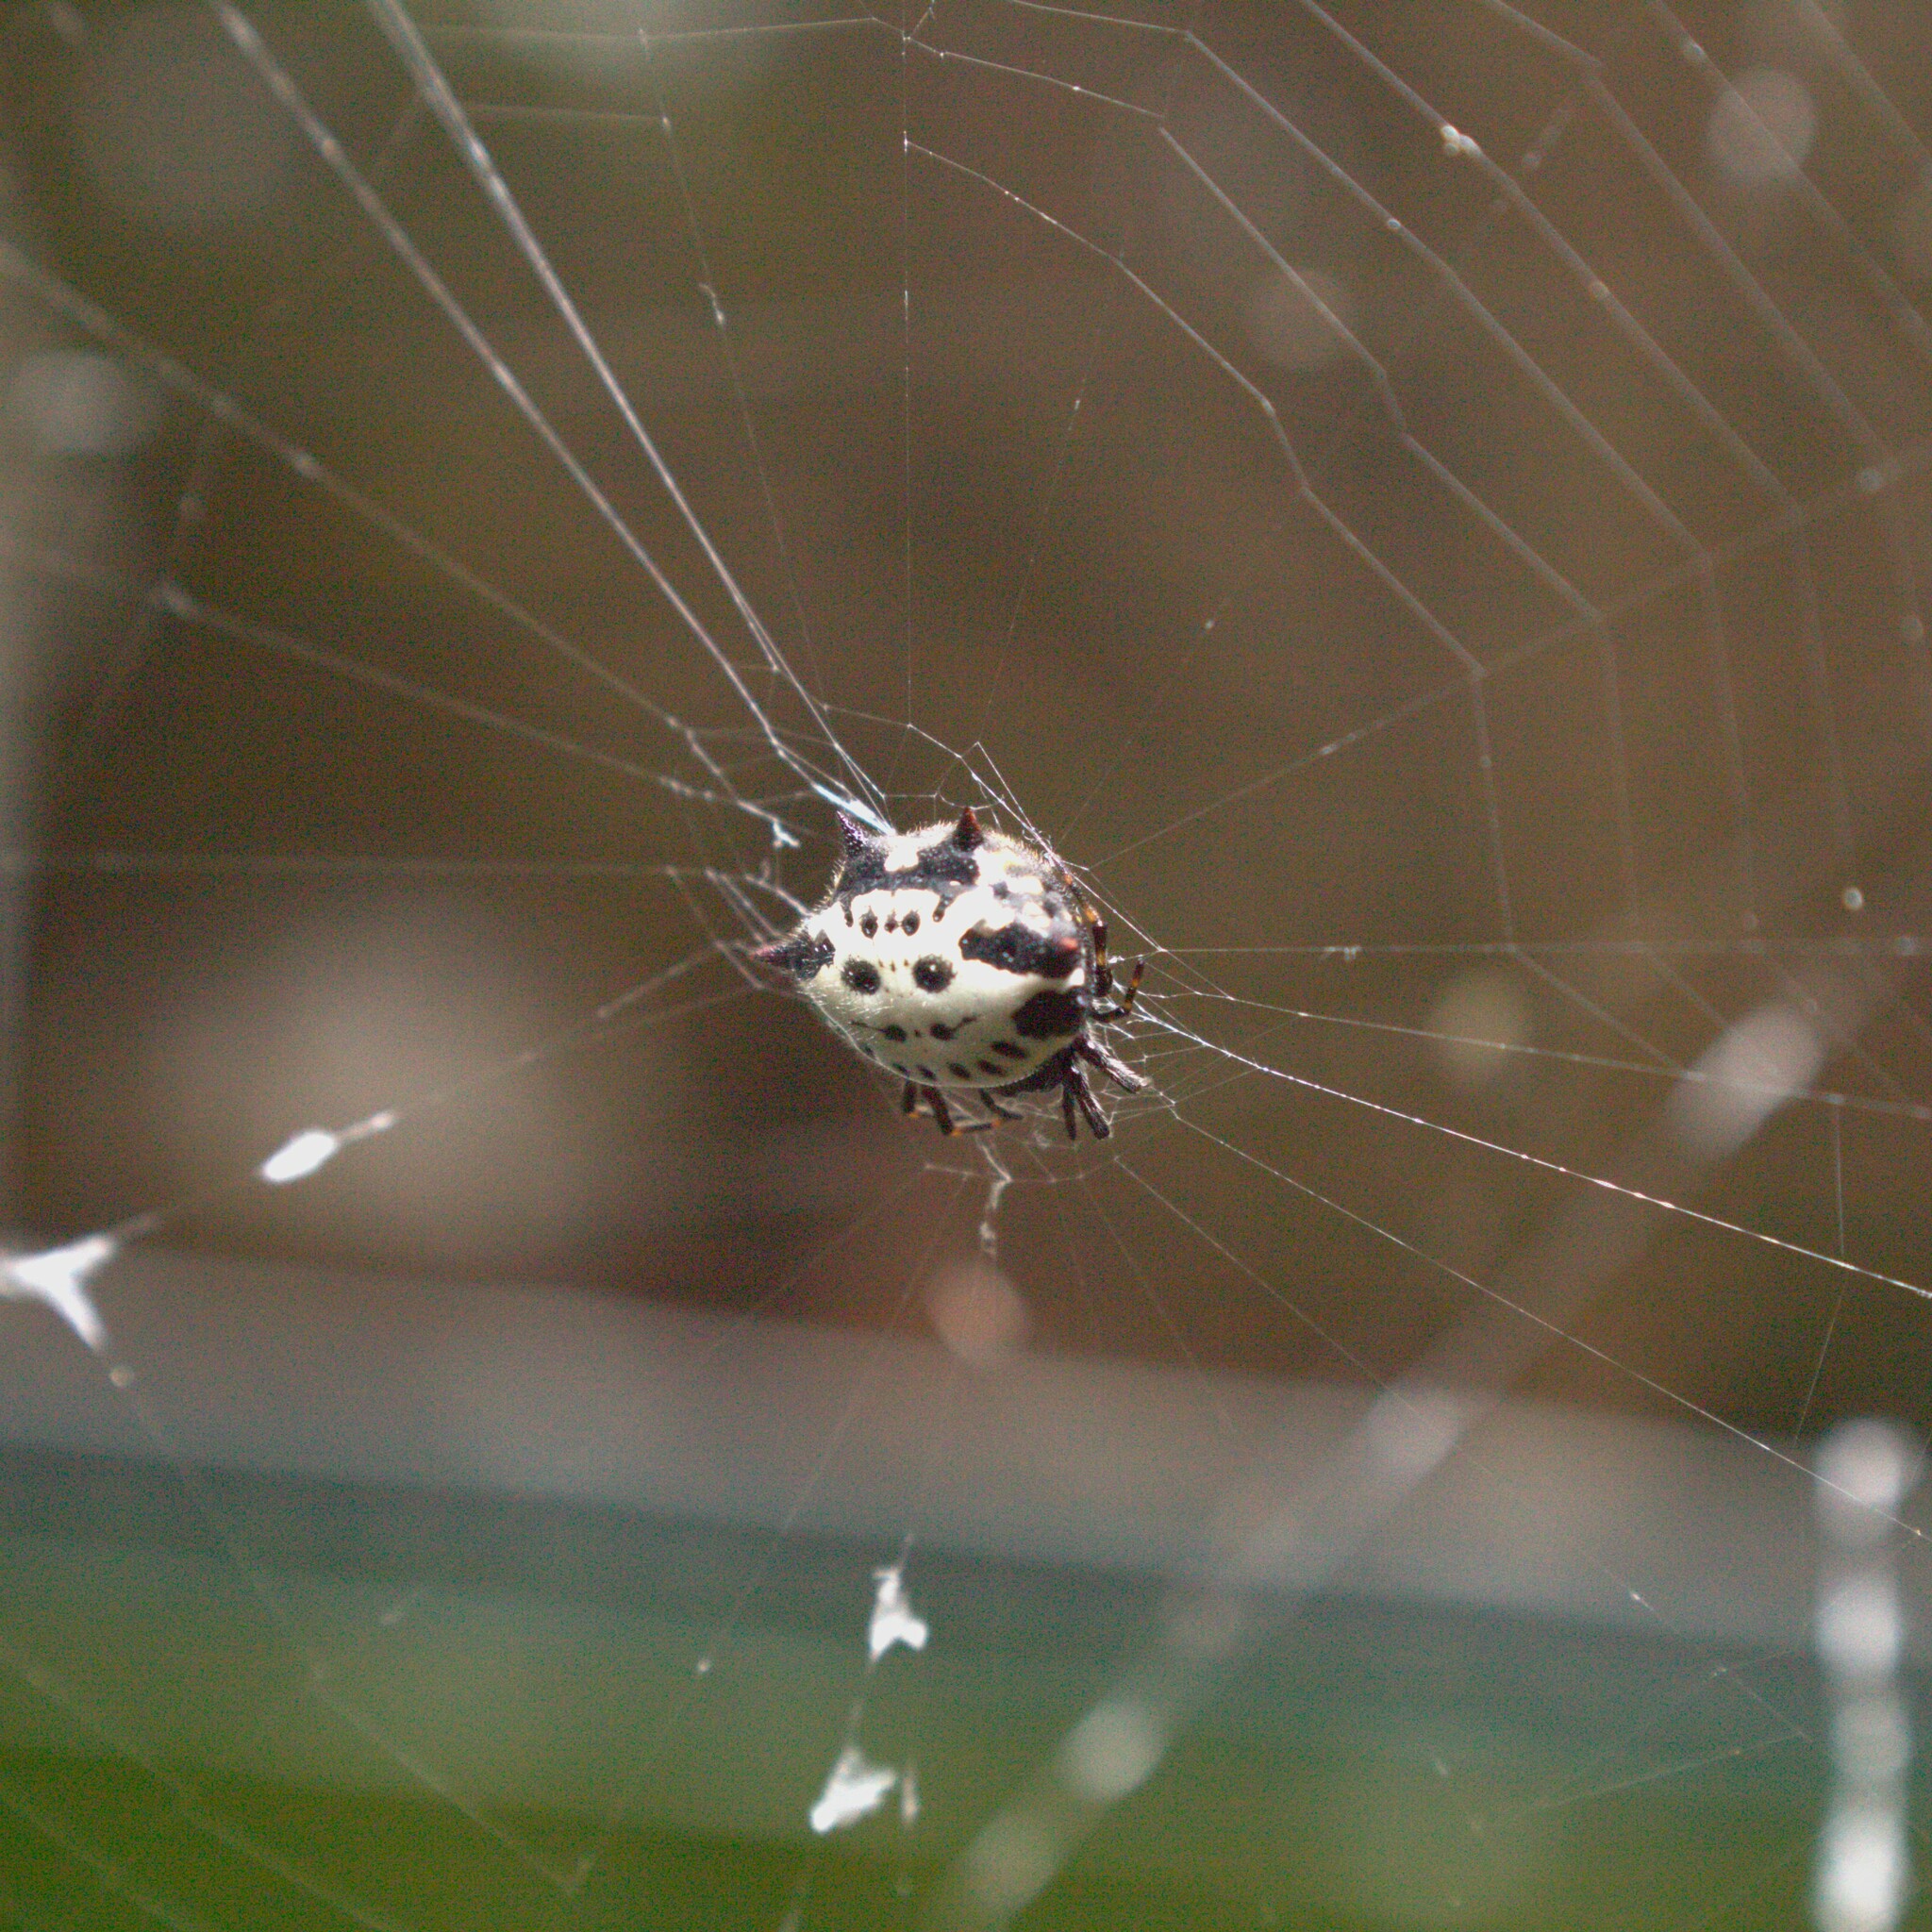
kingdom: Animalia
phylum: Arthropoda
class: Arachnida
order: Araneae
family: Araneidae
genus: Gasteracantha
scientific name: Gasteracantha cancriformis
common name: Orb weavers
